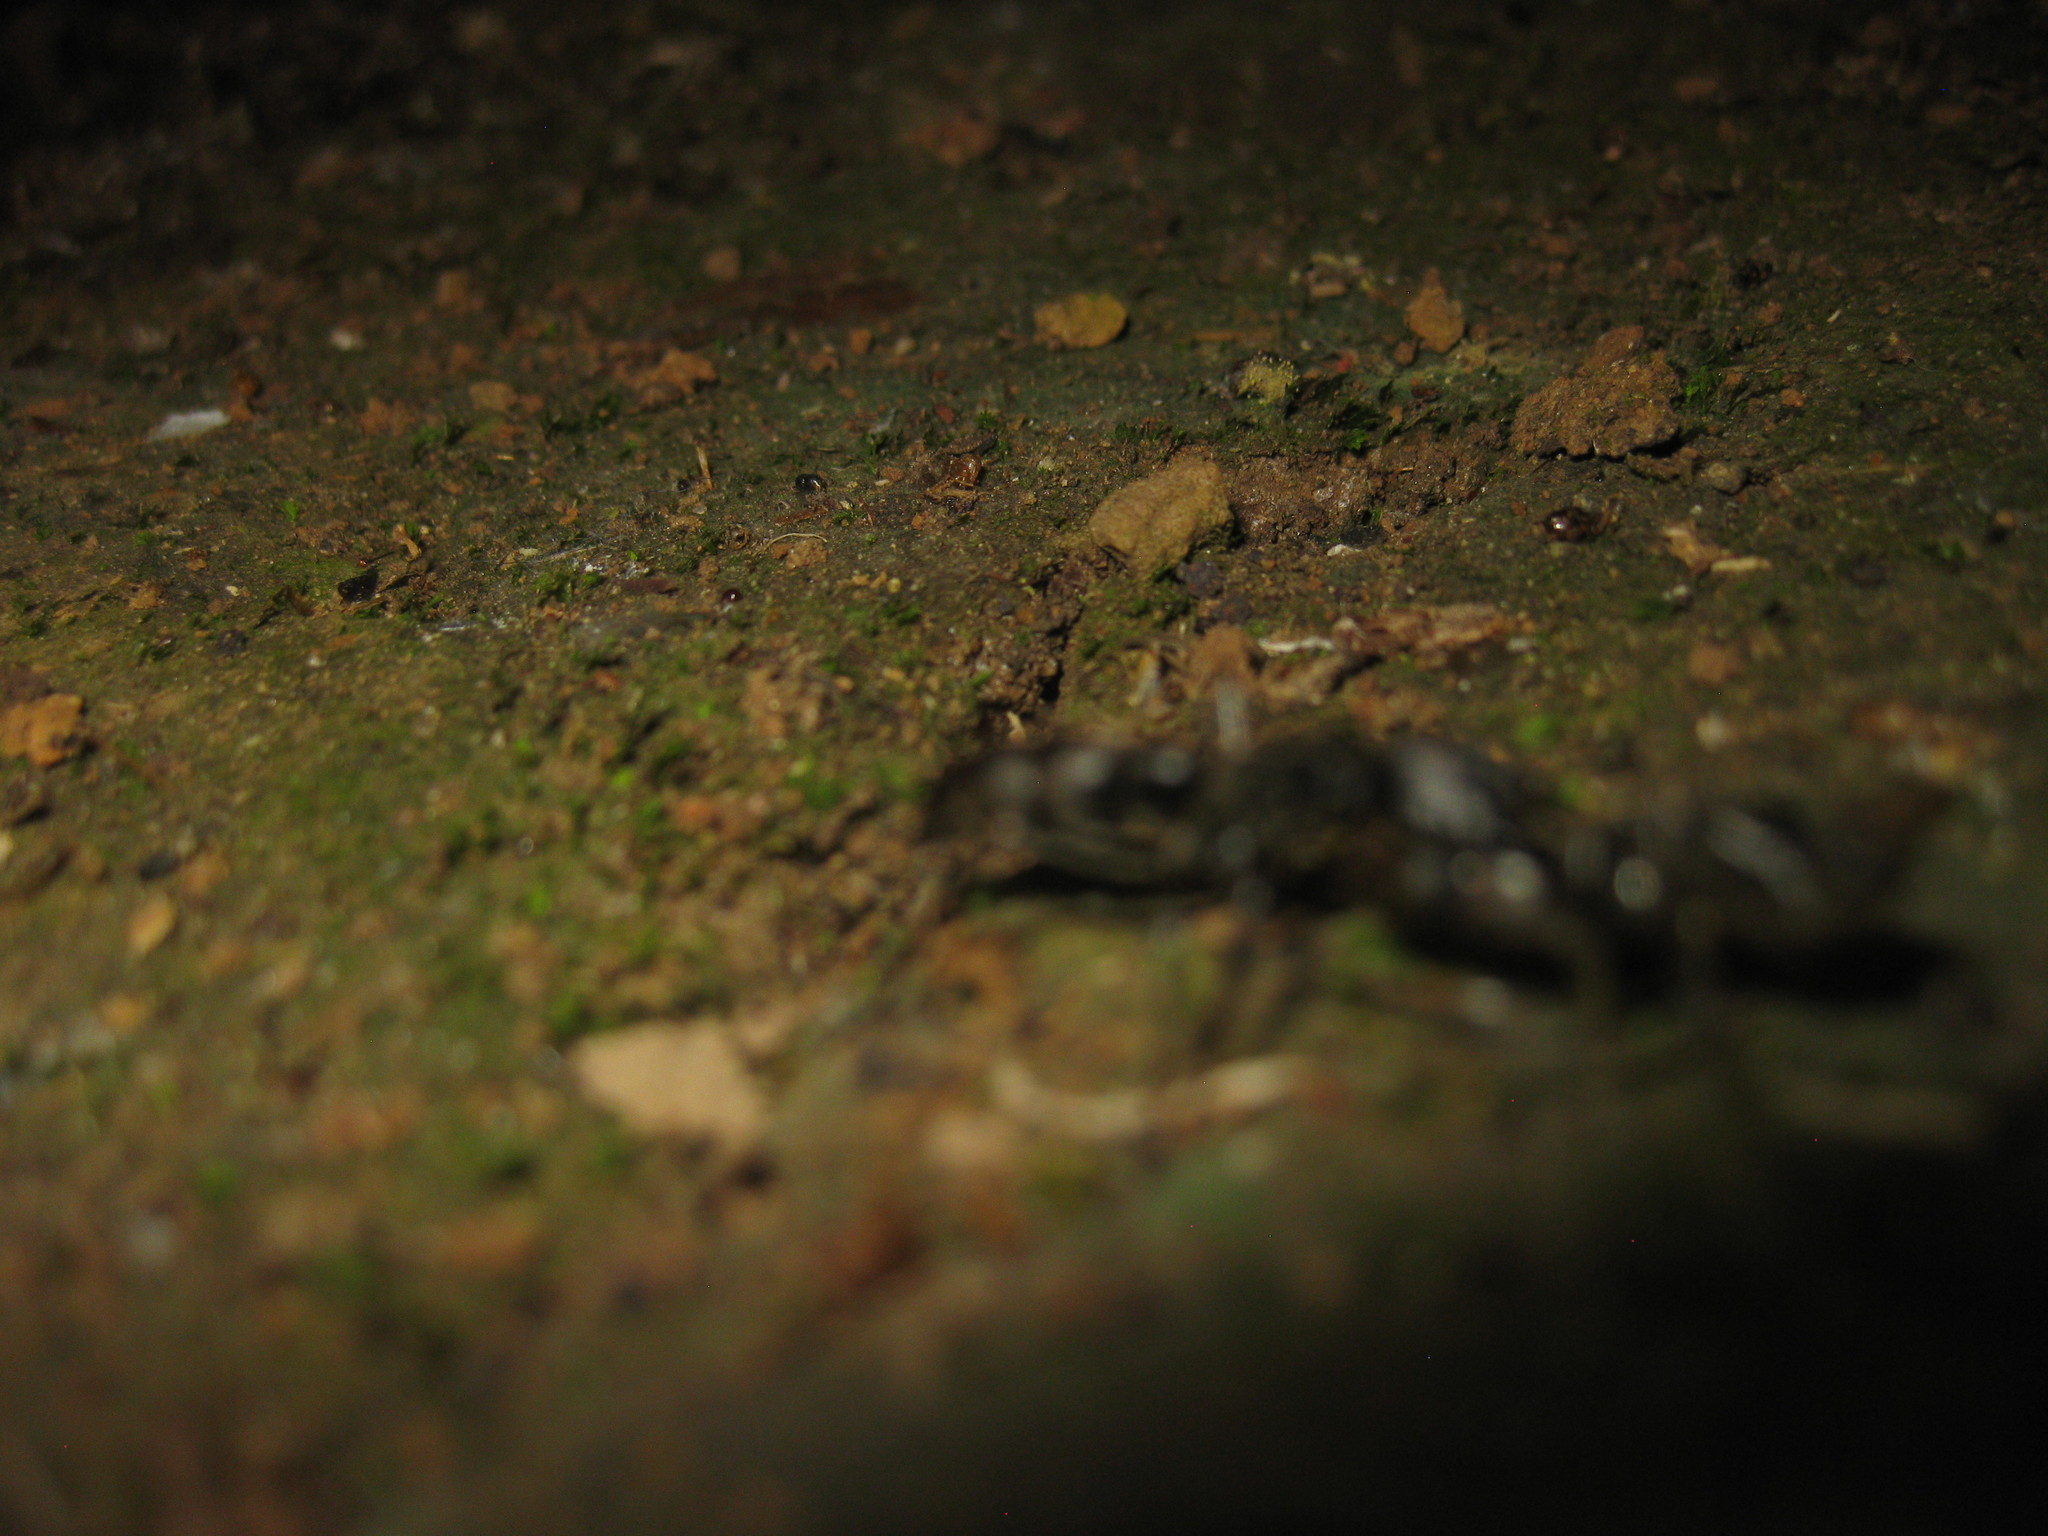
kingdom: Animalia
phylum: Arthropoda
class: Insecta
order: Hymenoptera
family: Formicidae
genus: Pachycondyla
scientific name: Pachycondyla crassinoda
